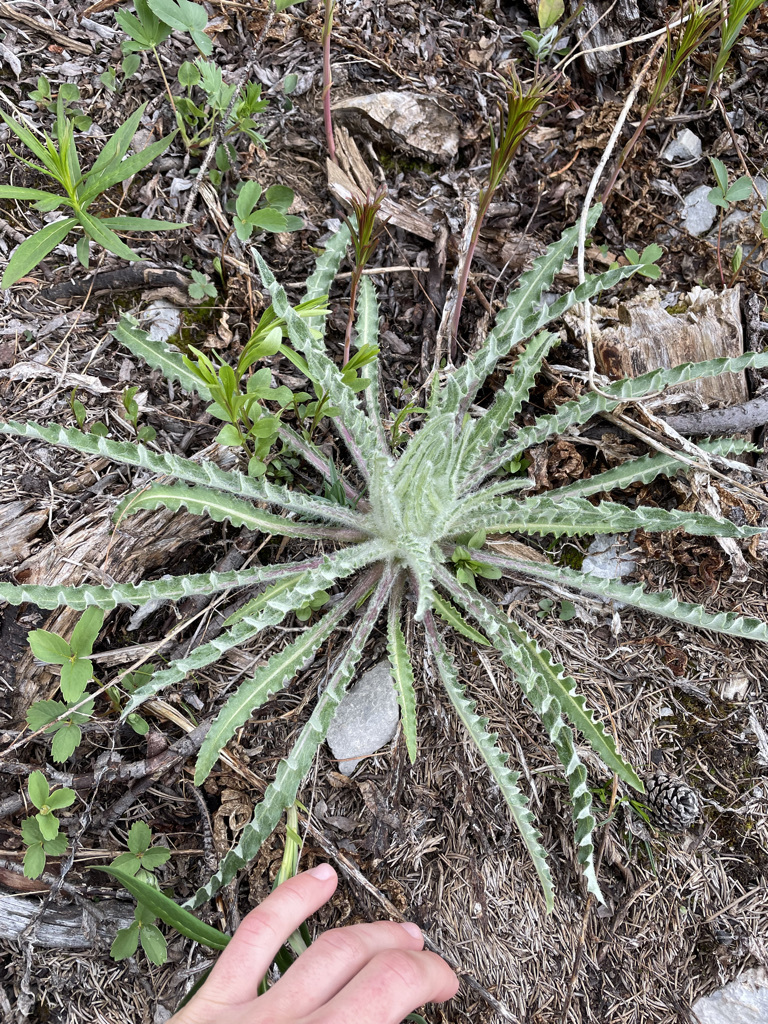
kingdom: Plantae
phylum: Tracheophyta
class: Magnoliopsida
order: Asterales
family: Asteraceae
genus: Cirsium
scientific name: Cirsium hookerianum
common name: Hooker's thistle
